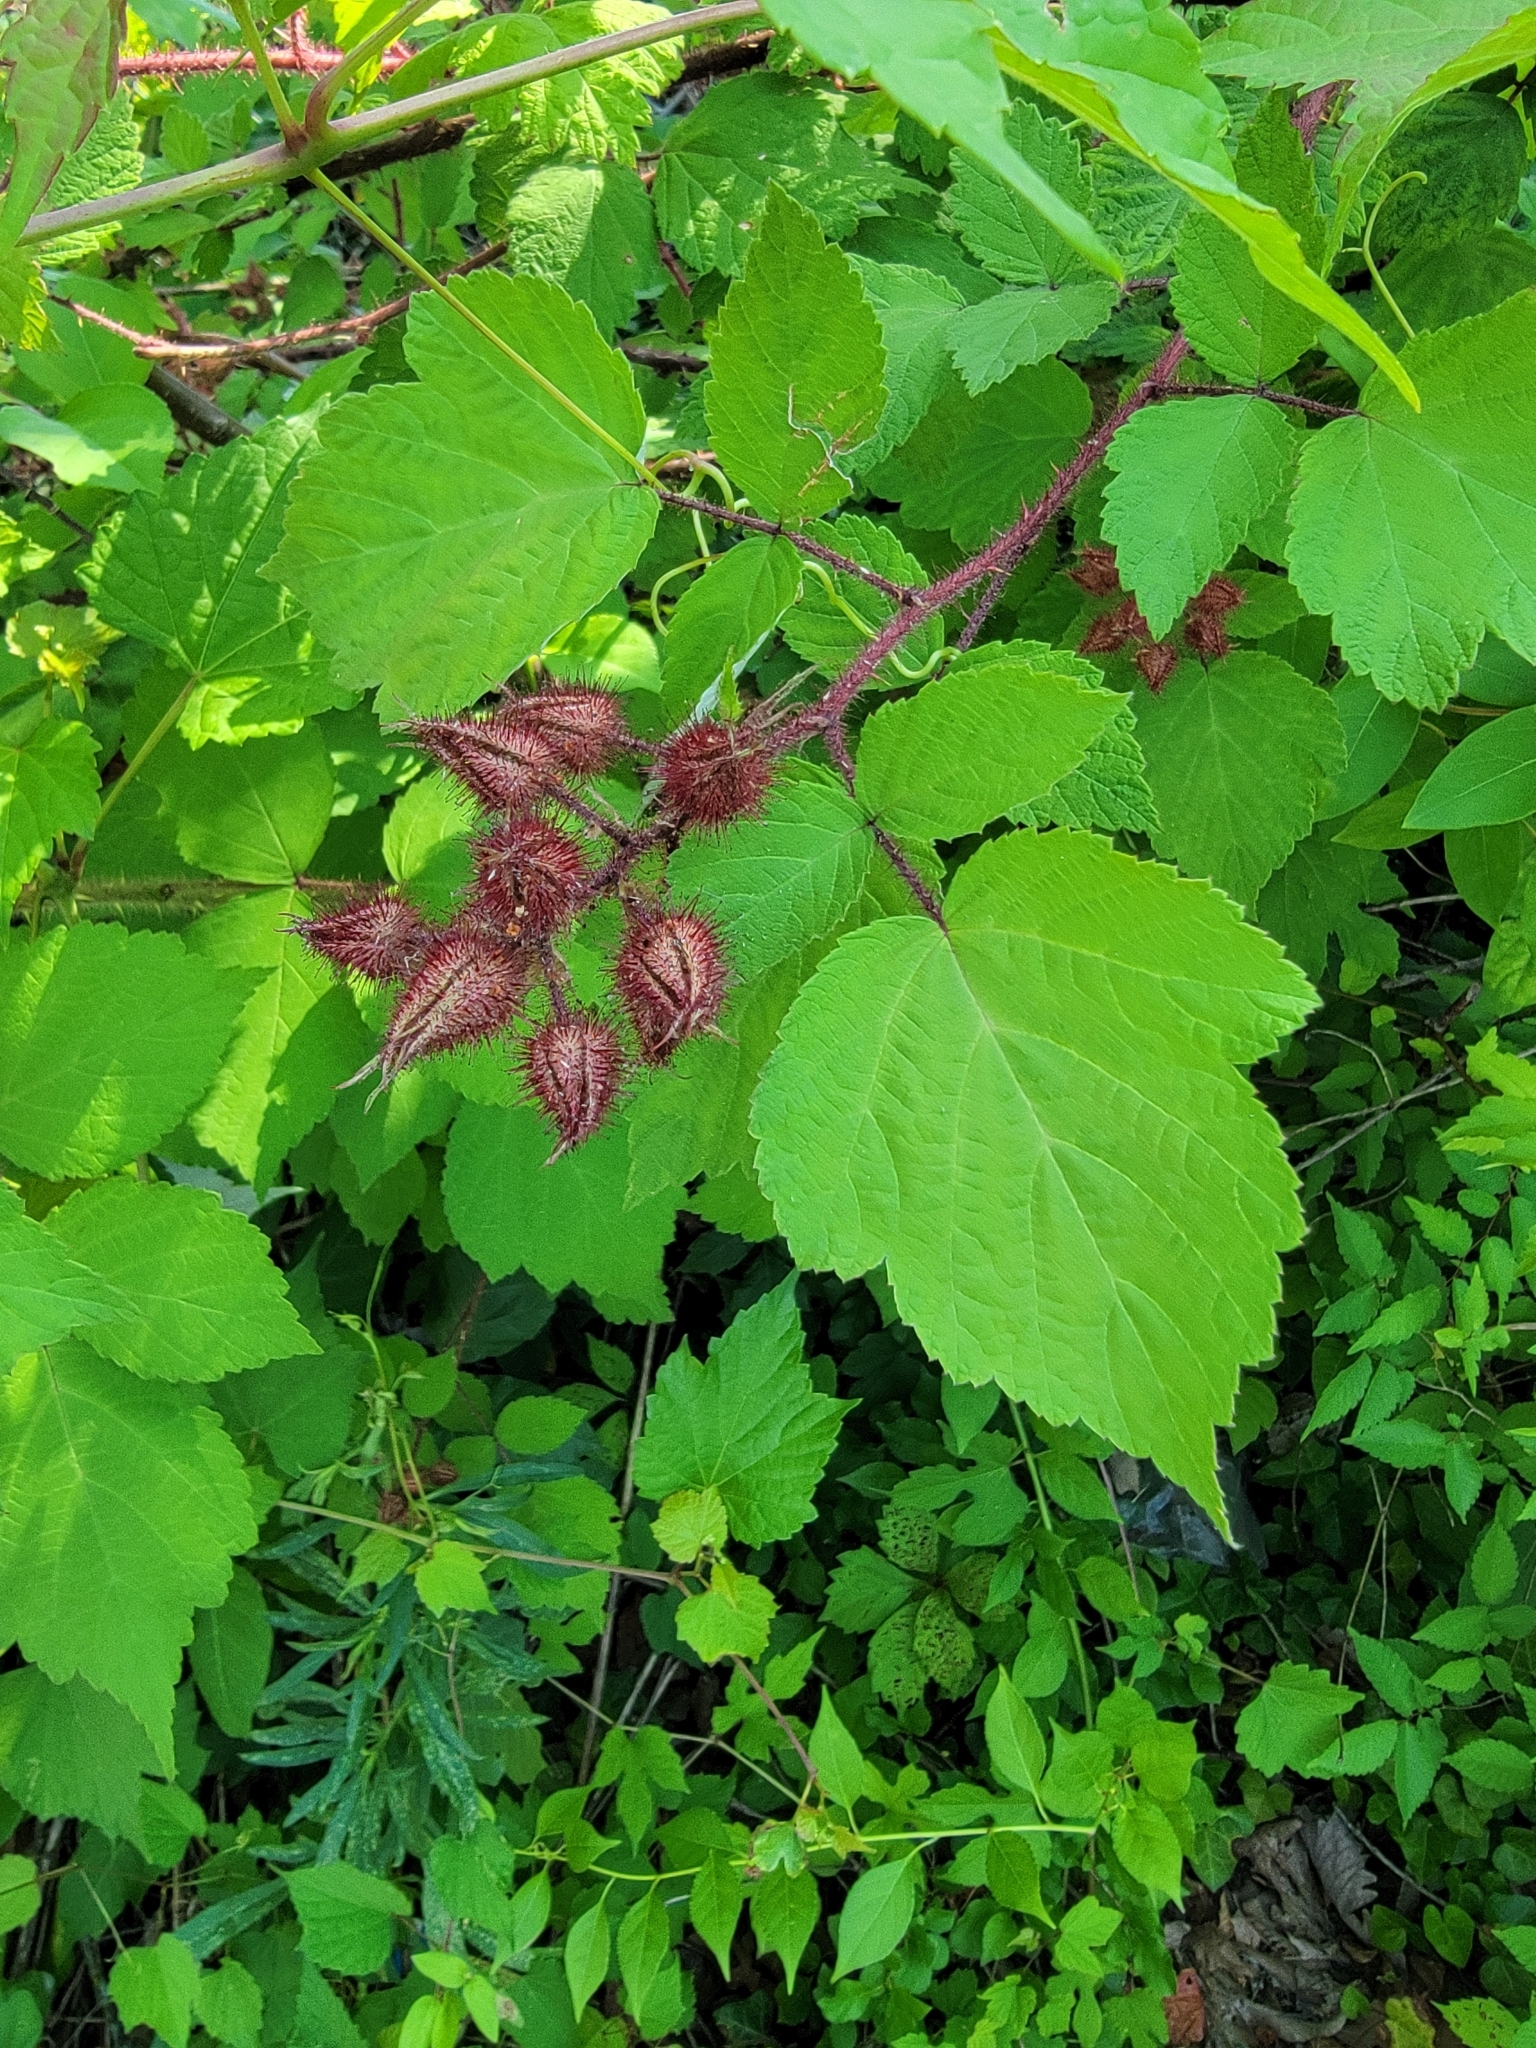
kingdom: Plantae
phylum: Tracheophyta
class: Magnoliopsida
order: Rosales
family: Rosaceae
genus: Rubus
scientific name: Rubus phoenicolasius
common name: Japanese wineberry
